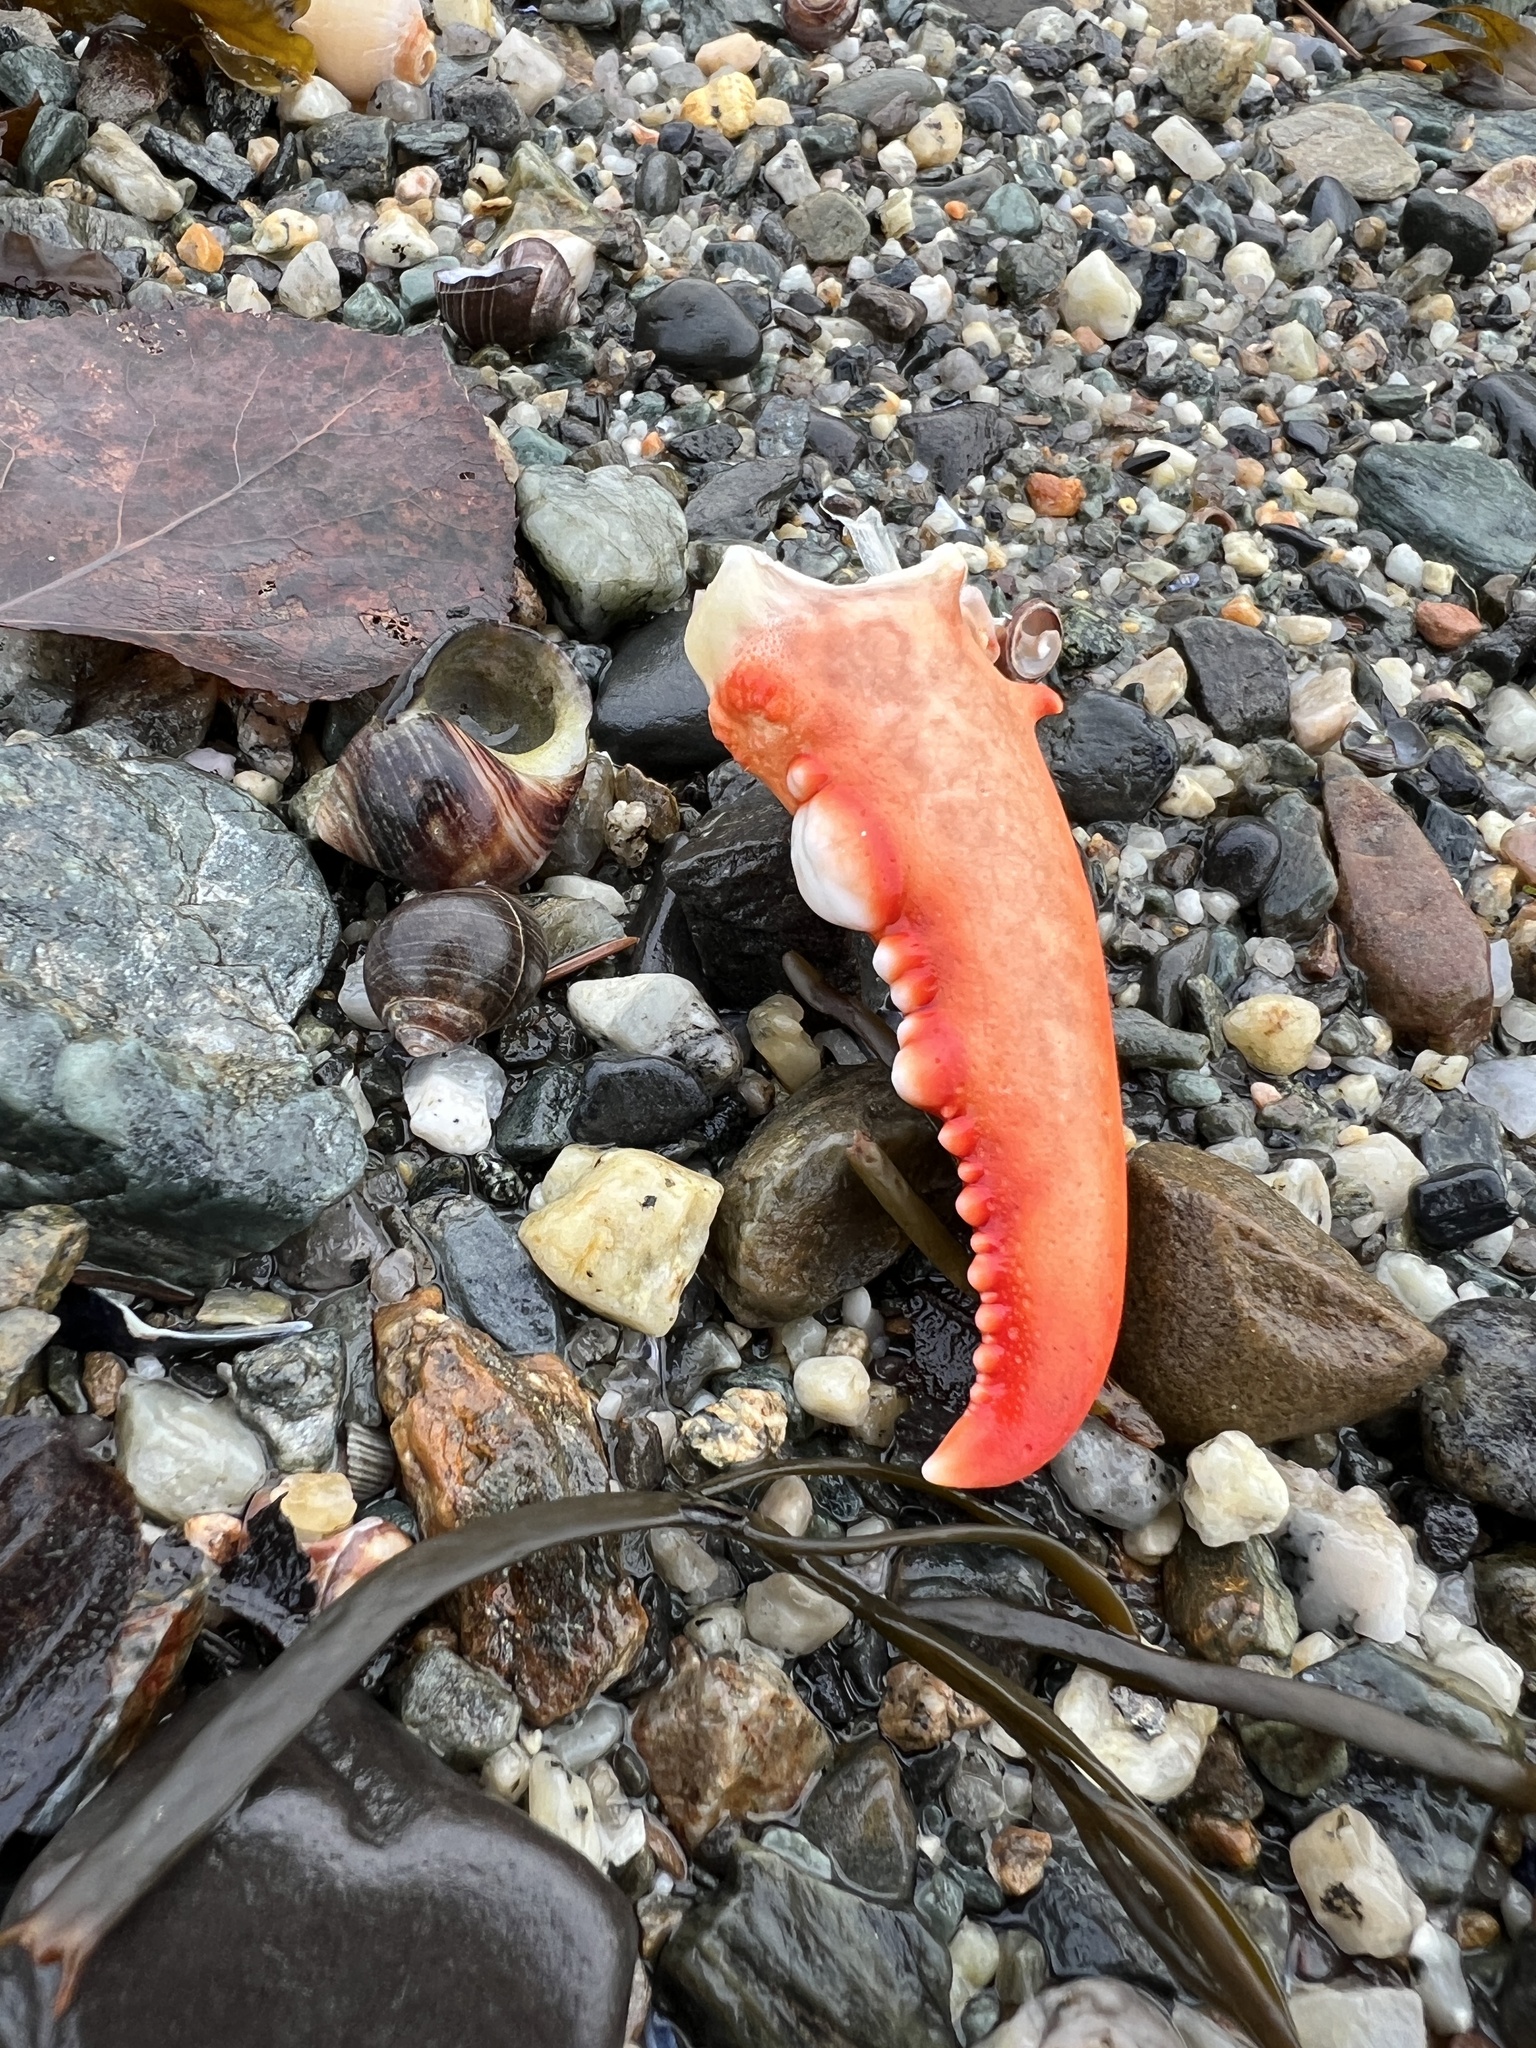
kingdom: Animalia
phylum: Arthropoda
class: Malacostraca
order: Decapoda
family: Nephropidae
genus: Homarus
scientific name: Homarus americanus
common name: American lobster
